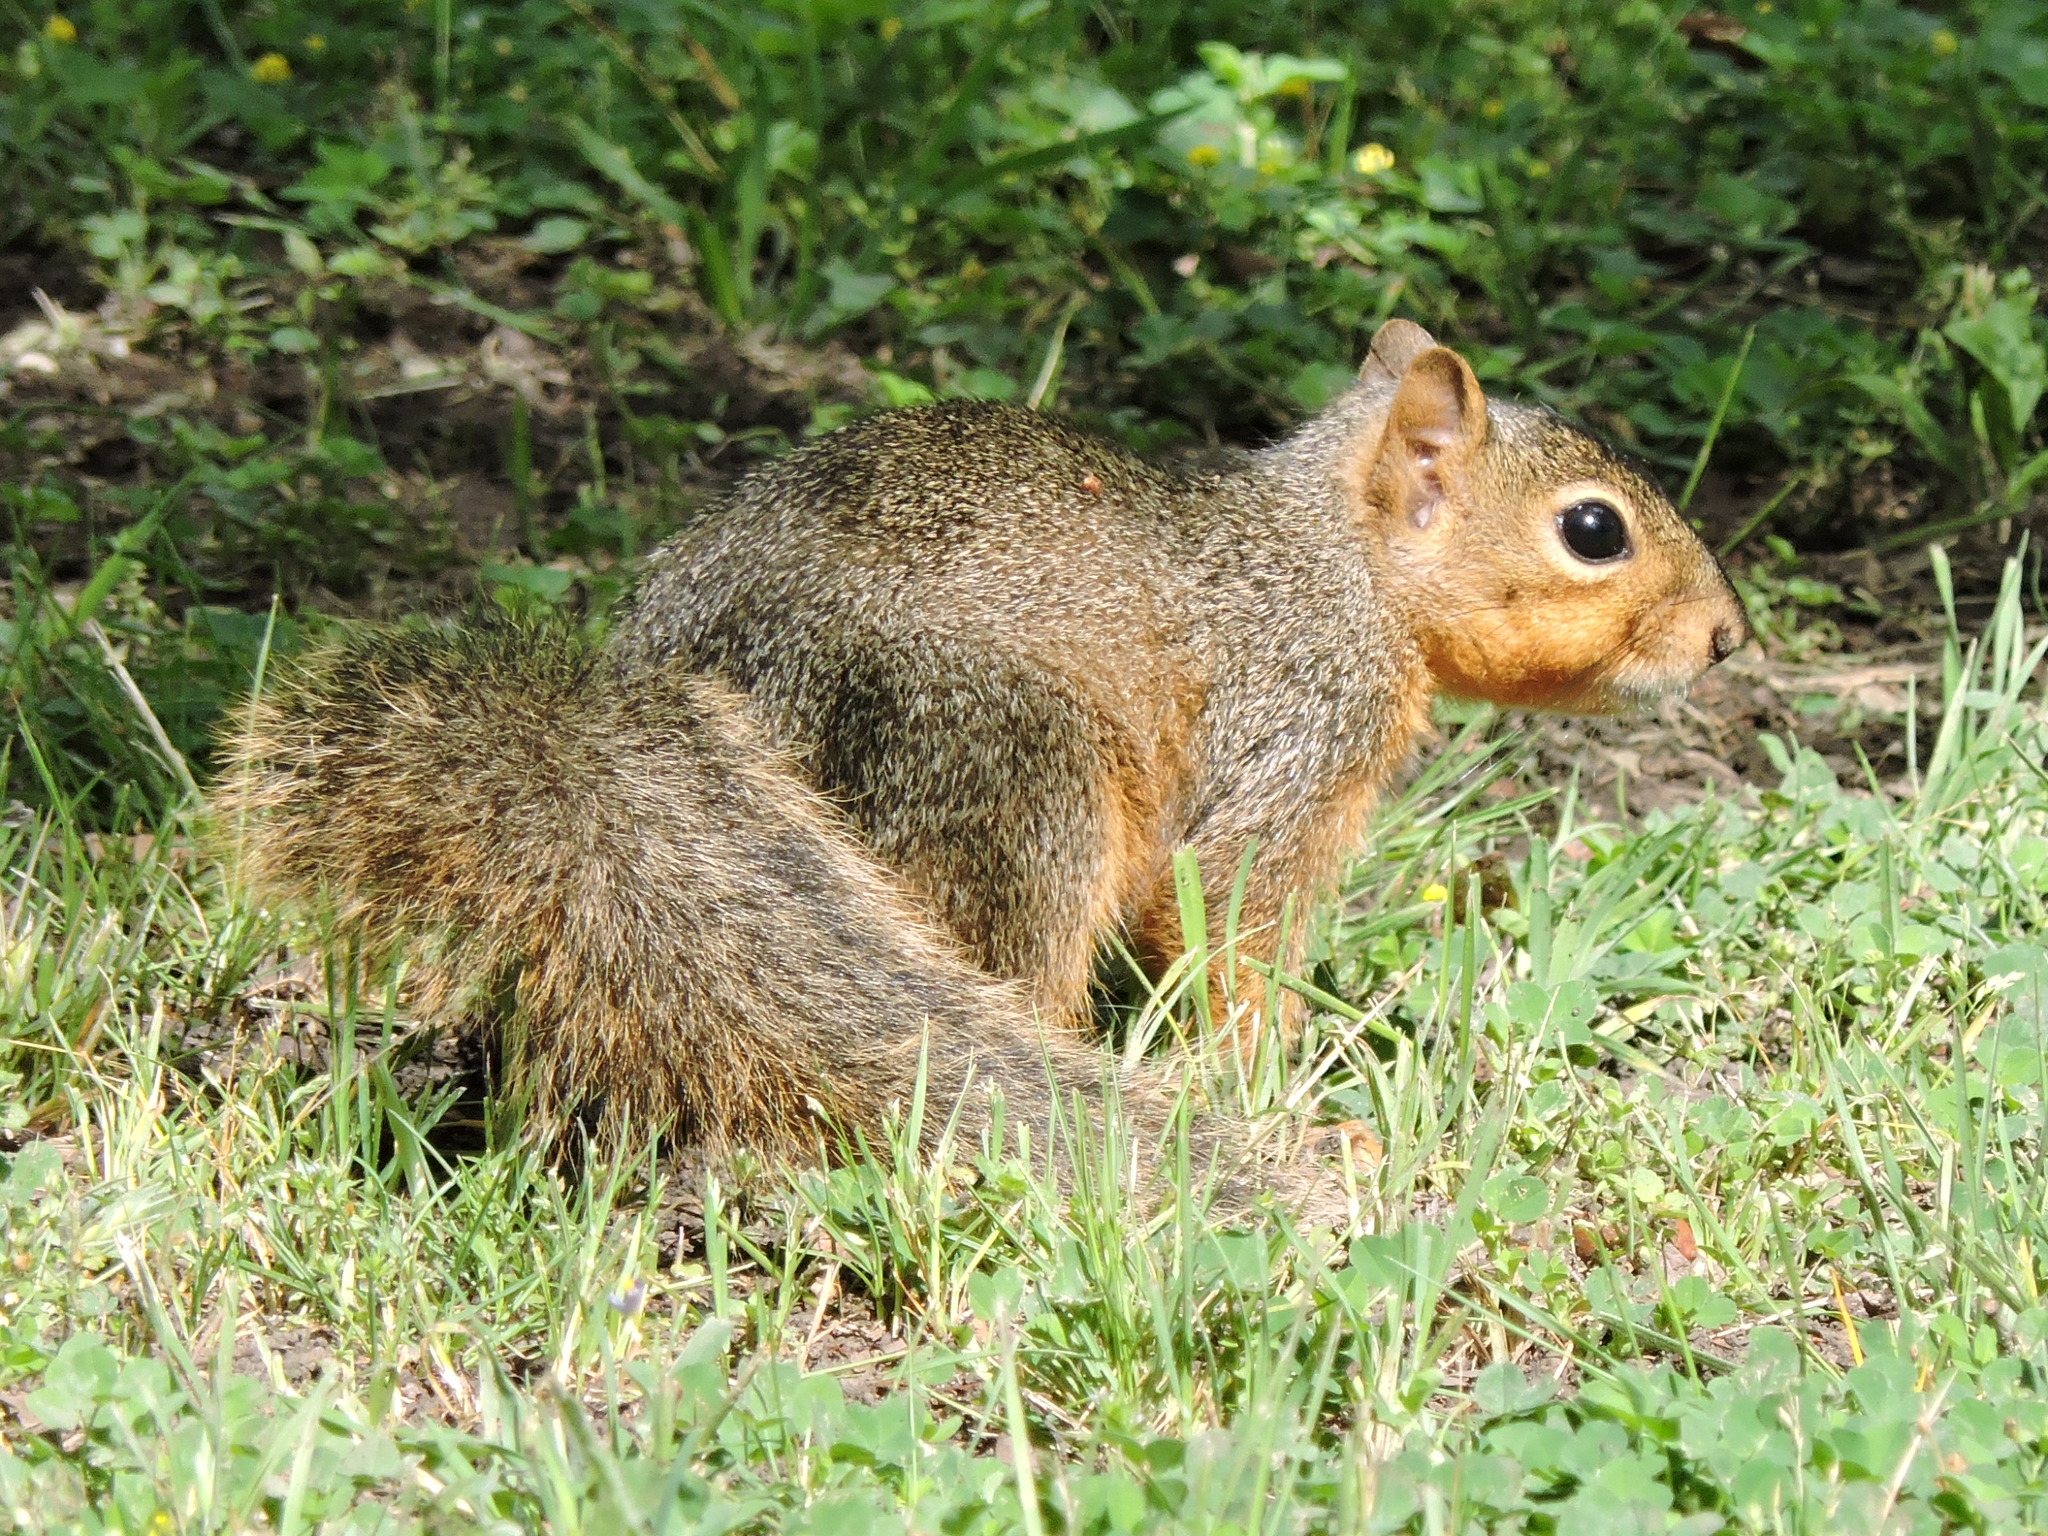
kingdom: Animalia
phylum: Chordata
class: Mammalia
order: Rodentia
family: Sciuridae
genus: Sciurus
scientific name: Sciurus niger
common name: Fox squirrel
